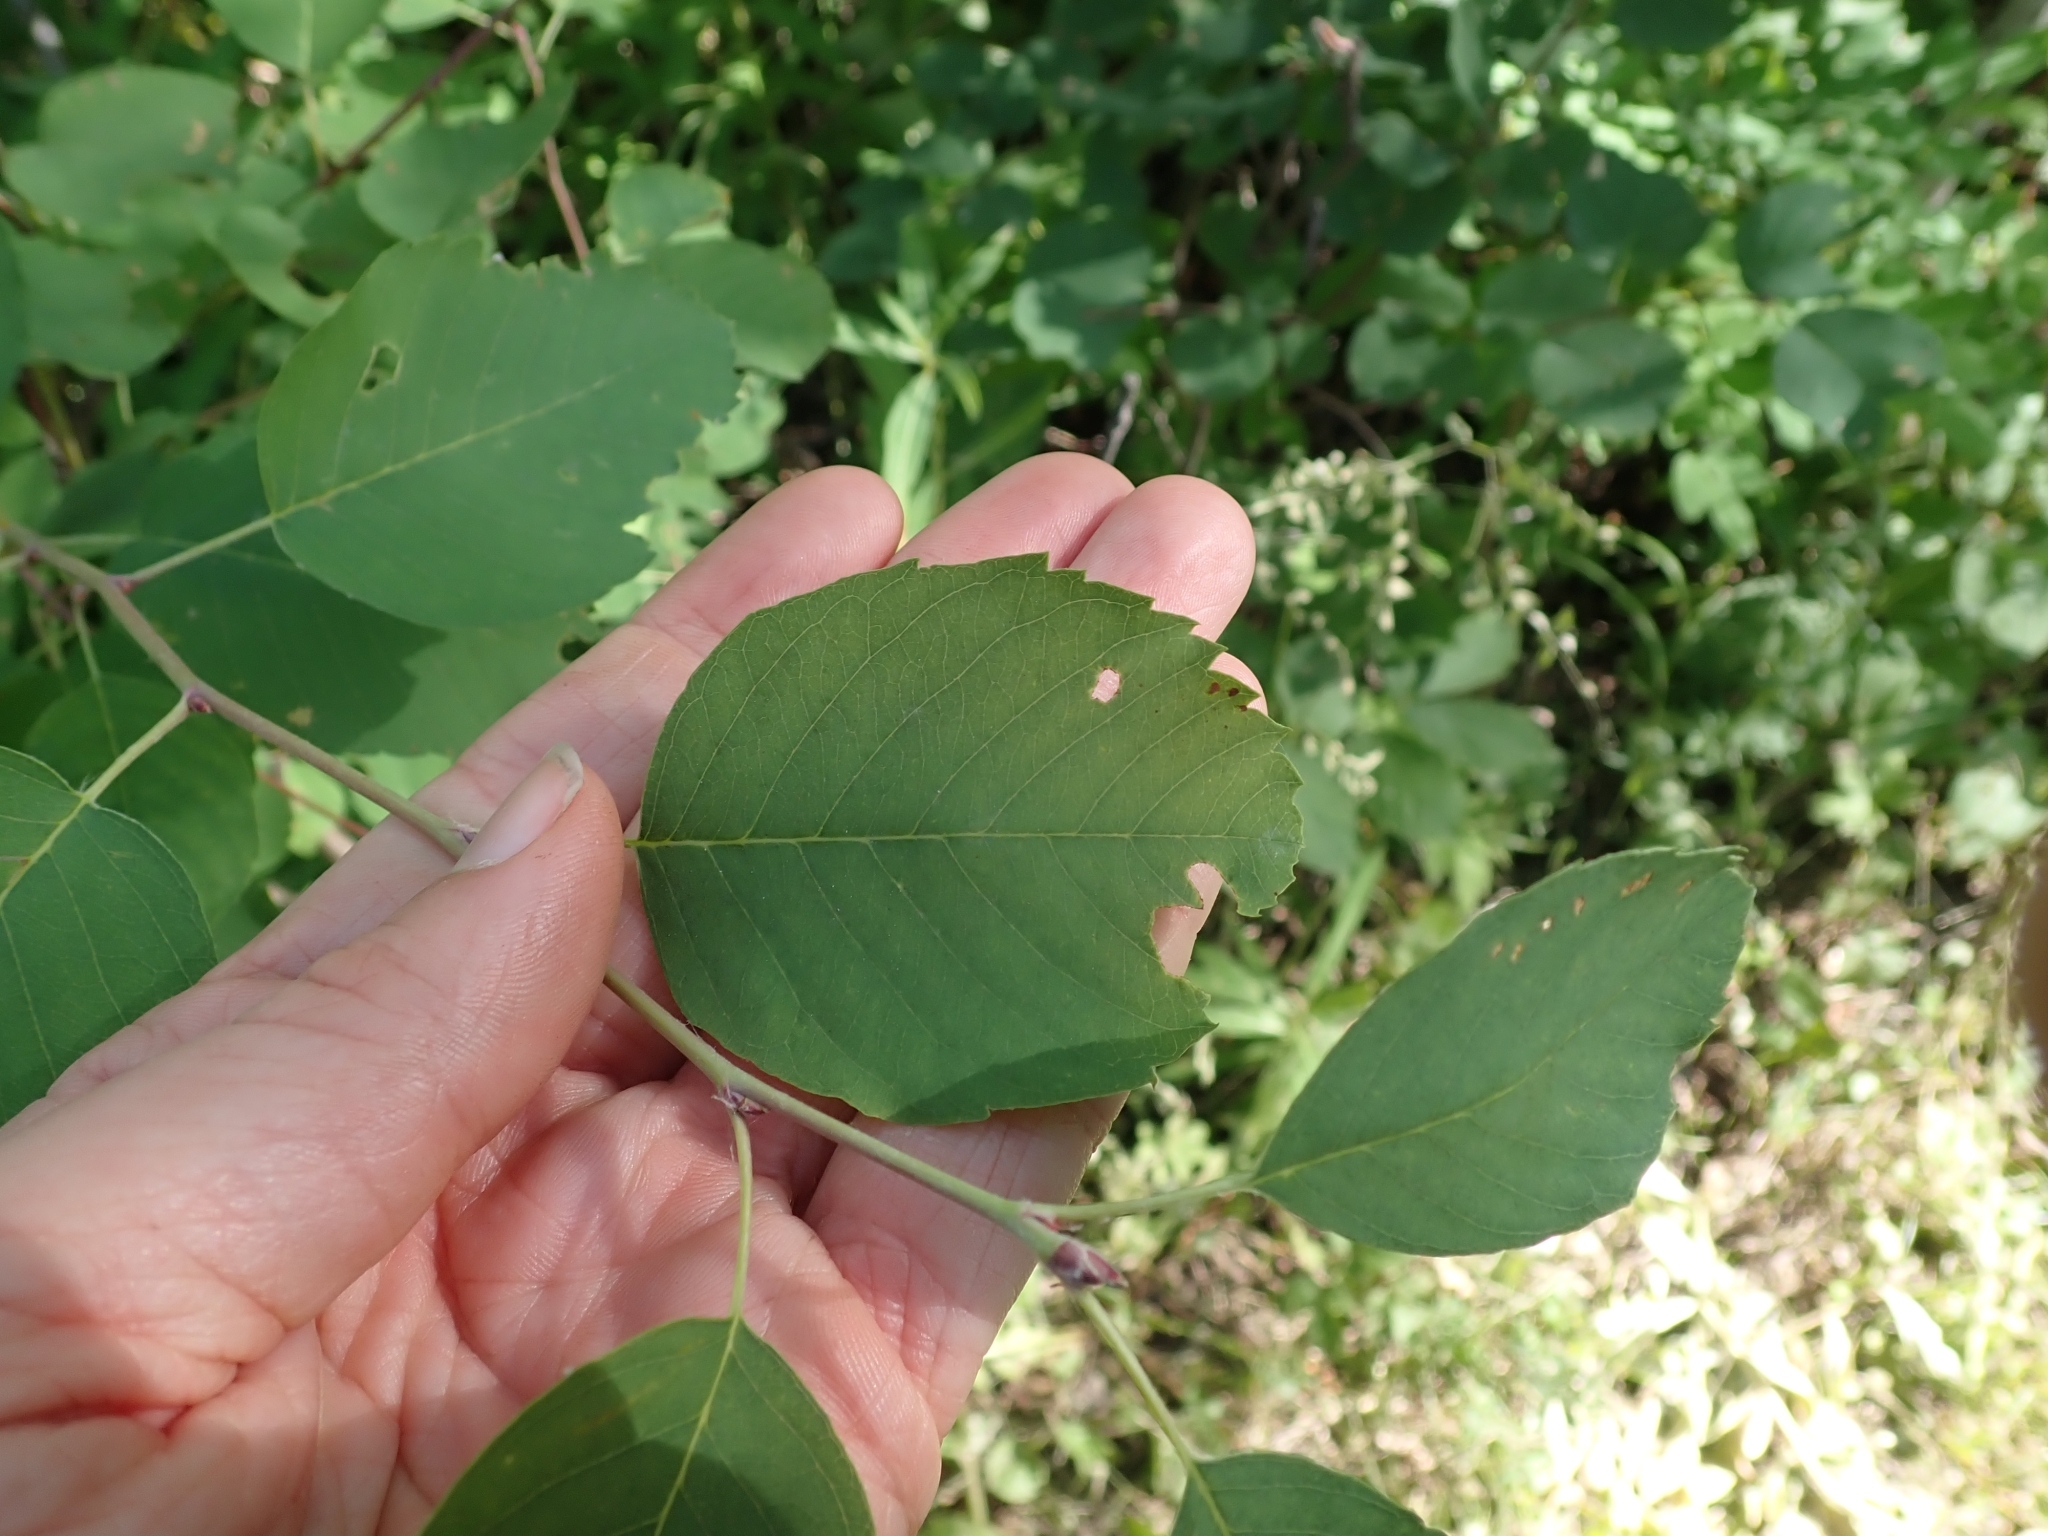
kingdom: Plantae
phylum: Tracheophyta
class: Magnoliopsida
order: Rosales
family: Rosaceae
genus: Amelanchier
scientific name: Amelanchier alnifolia
